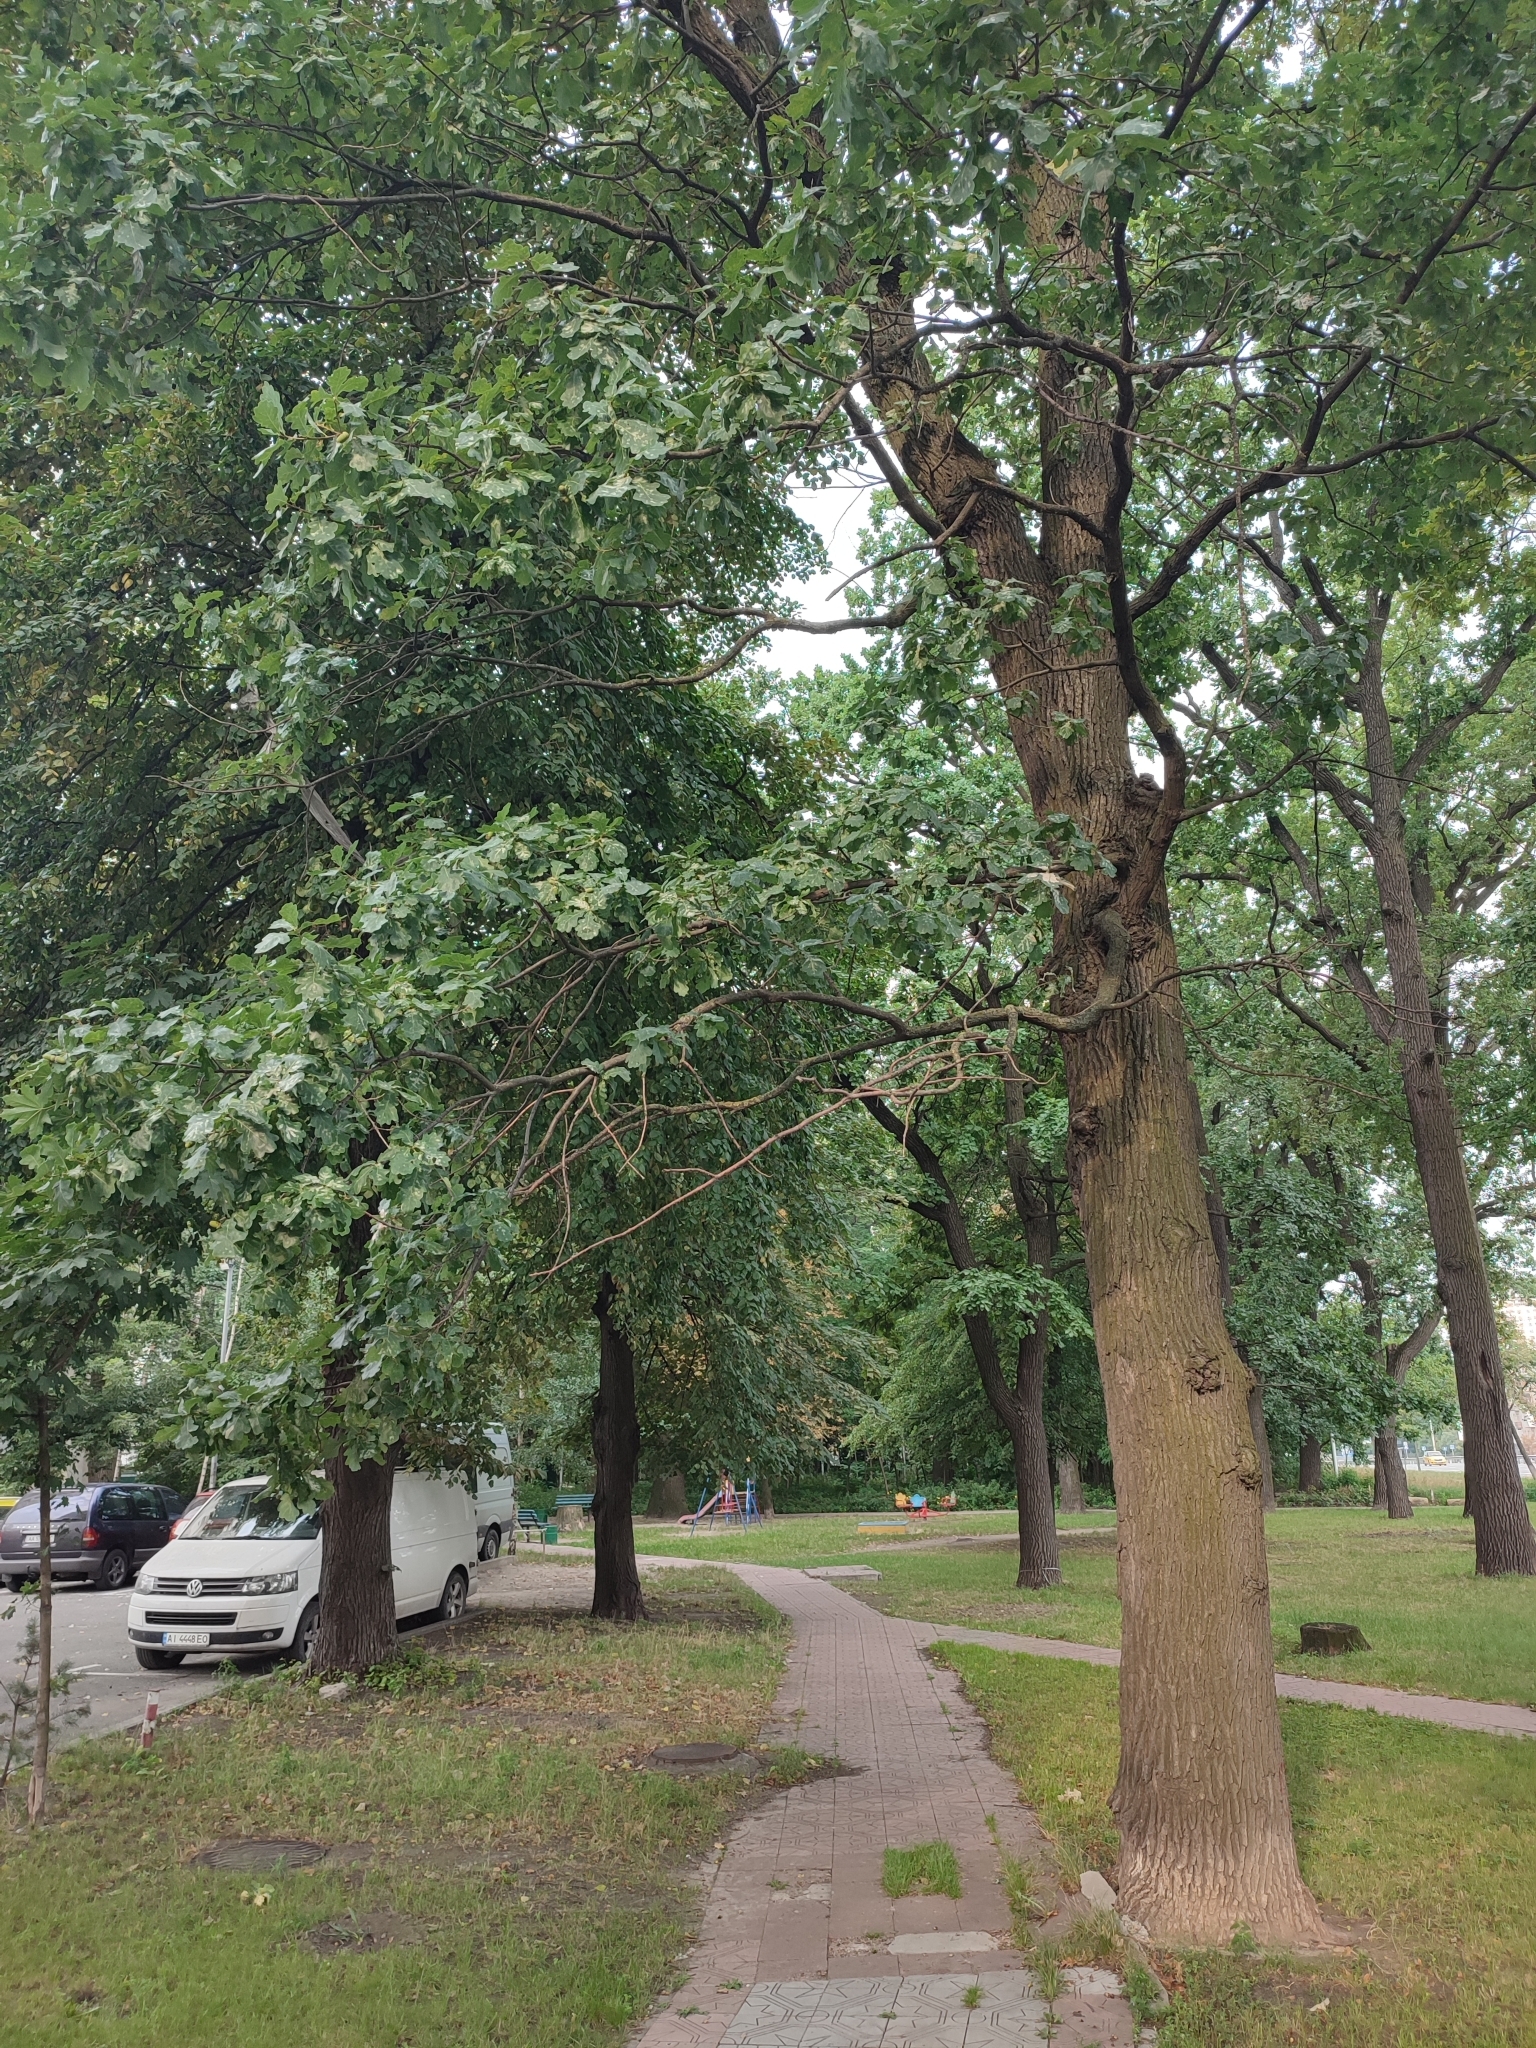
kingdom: Plantae
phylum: Tracheophyta
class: Magnoliopsida
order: Fagales
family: Fagaceae
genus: Quercus
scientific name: Quercus robur
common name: Pedunculate oak
